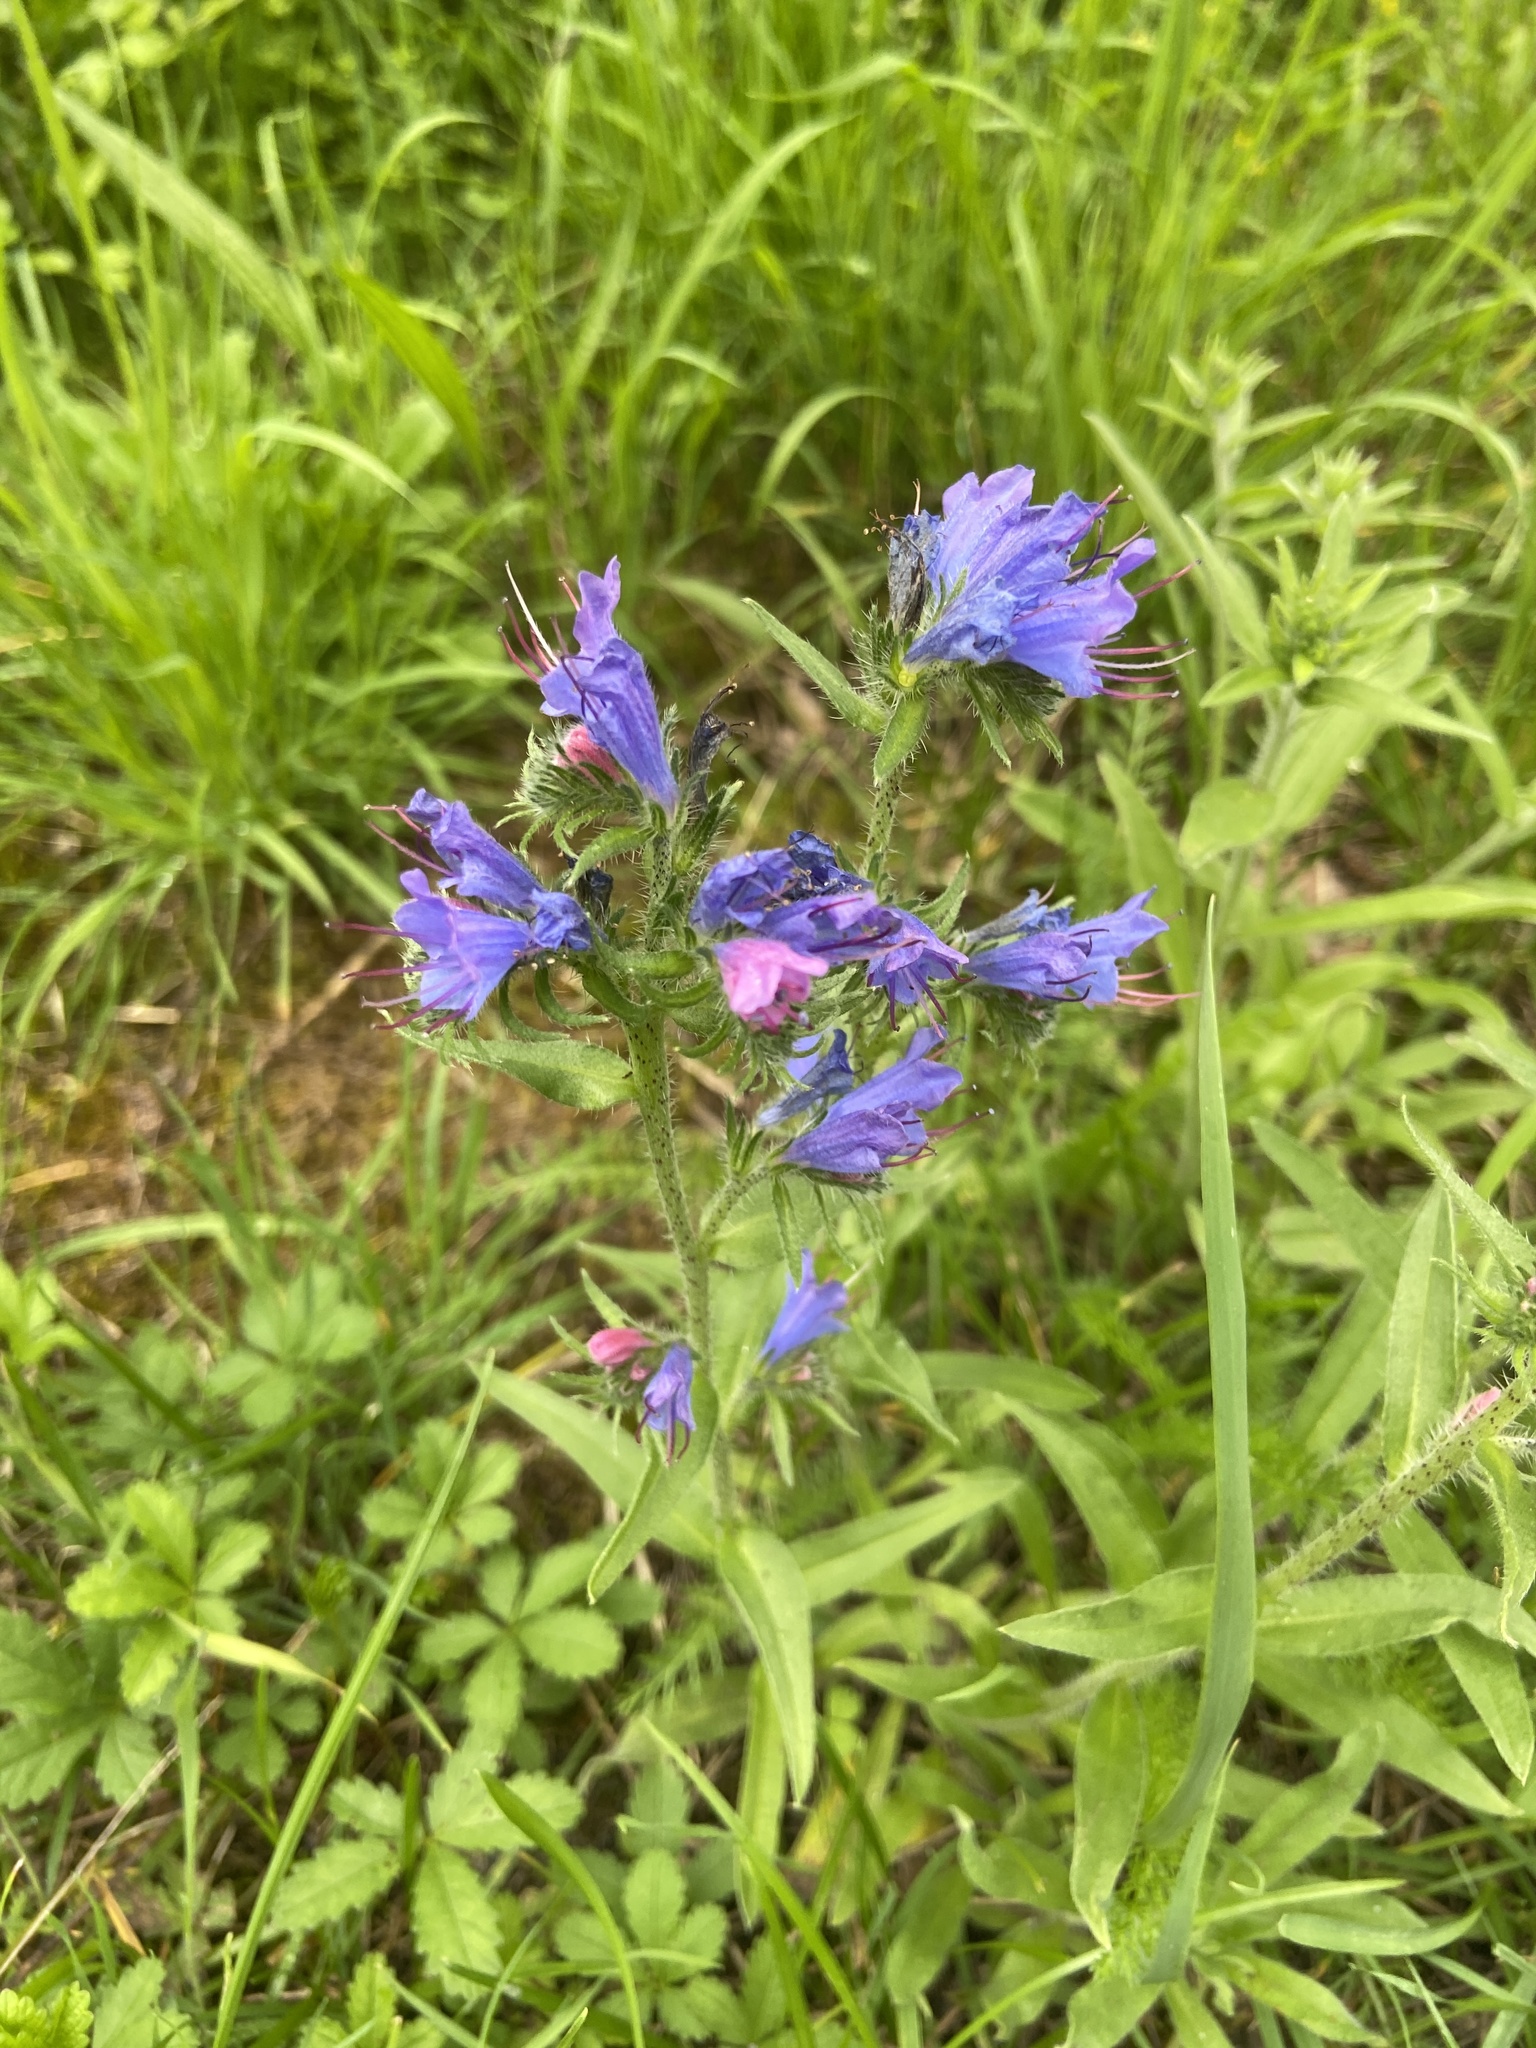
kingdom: Plantae
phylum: Tracheophyta
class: Magnoliopsida
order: Boraginales
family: Boraginaceae
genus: Echium
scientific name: Echium vulgare
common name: Common viper's bugloss
